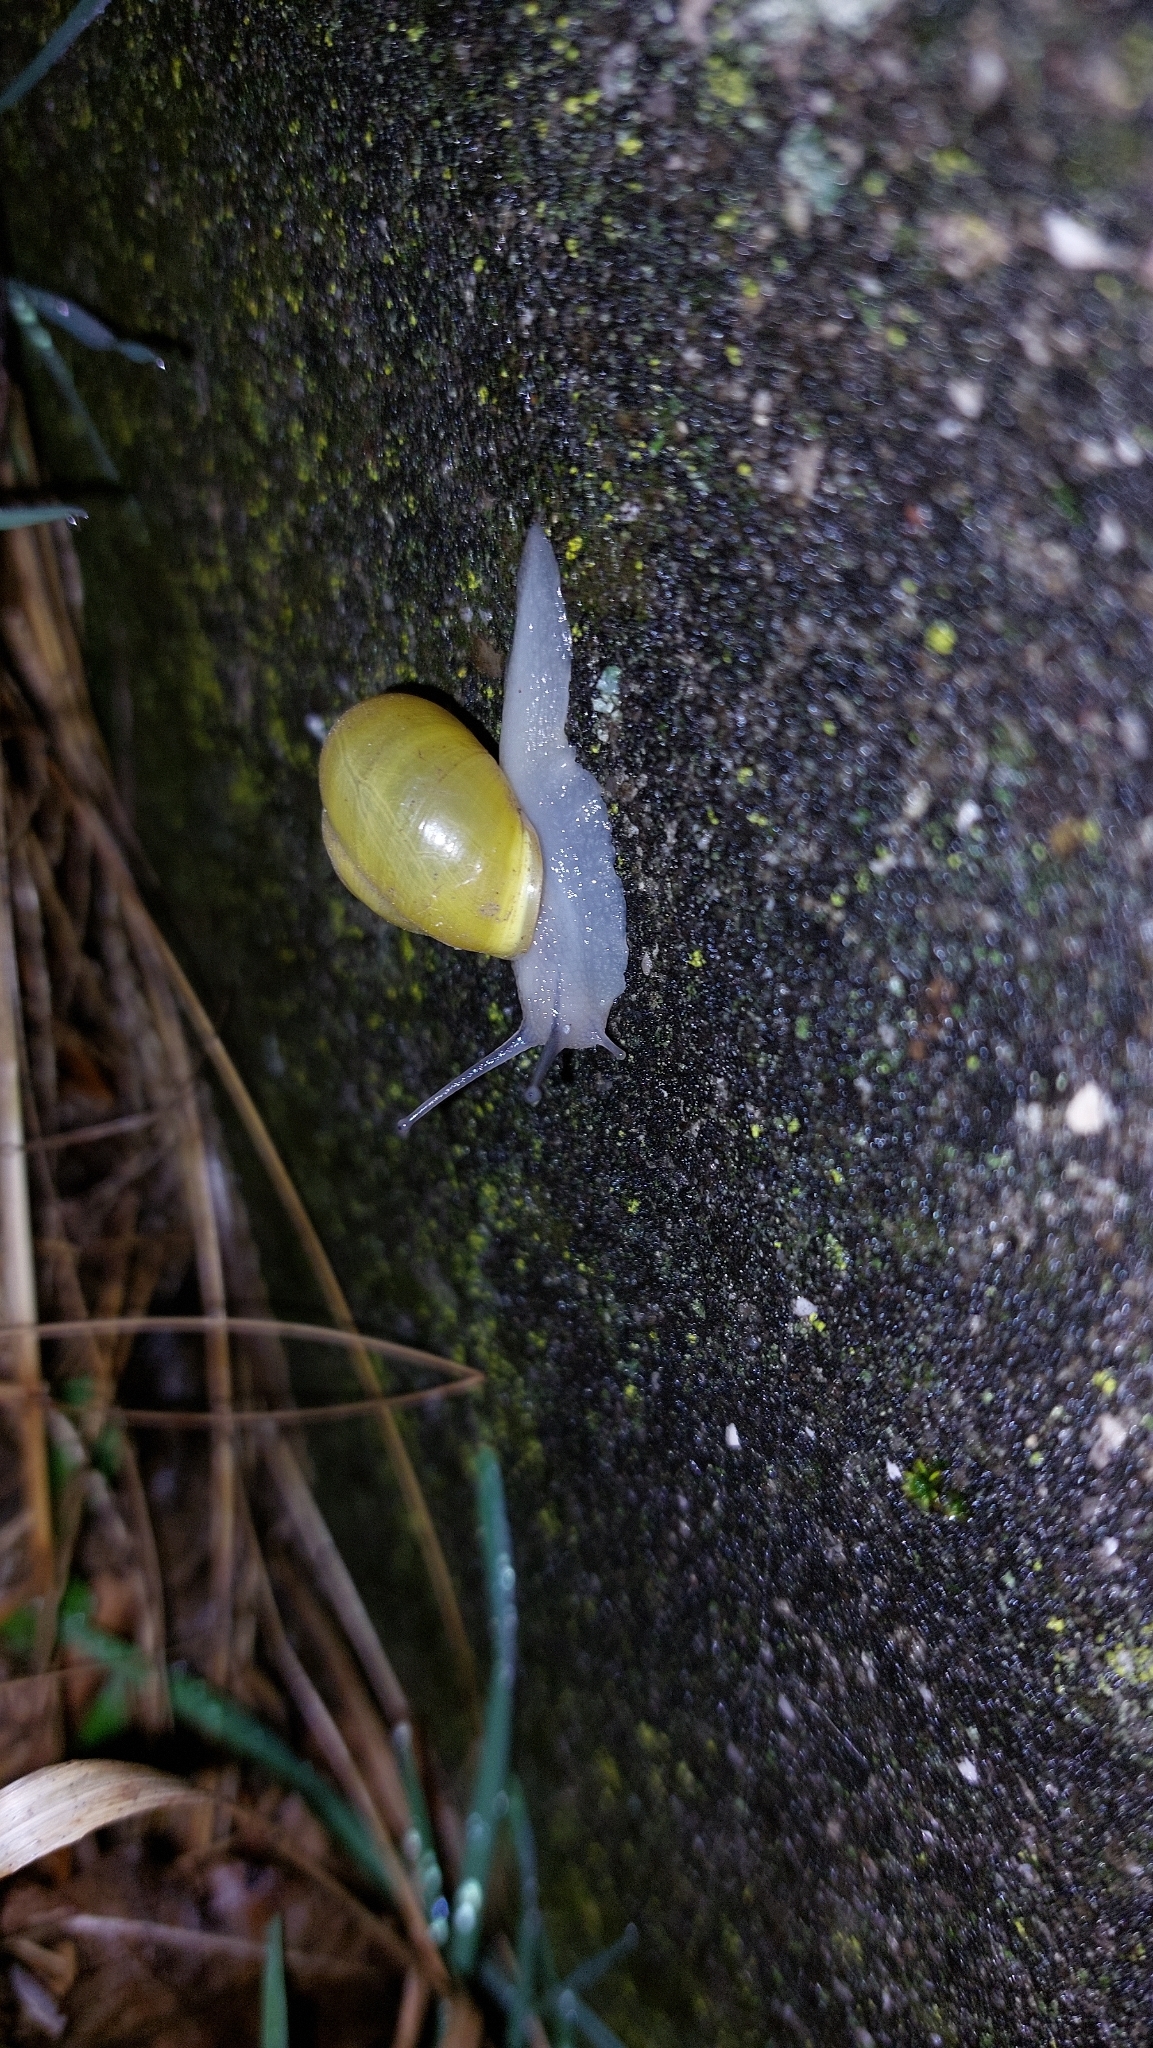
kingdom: Animalia
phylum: Mollusca
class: Gastropoda
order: Stylommatophora
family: Helicidae
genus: Cepaea
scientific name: Cepaea hortensis
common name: White-lip gardensnail
